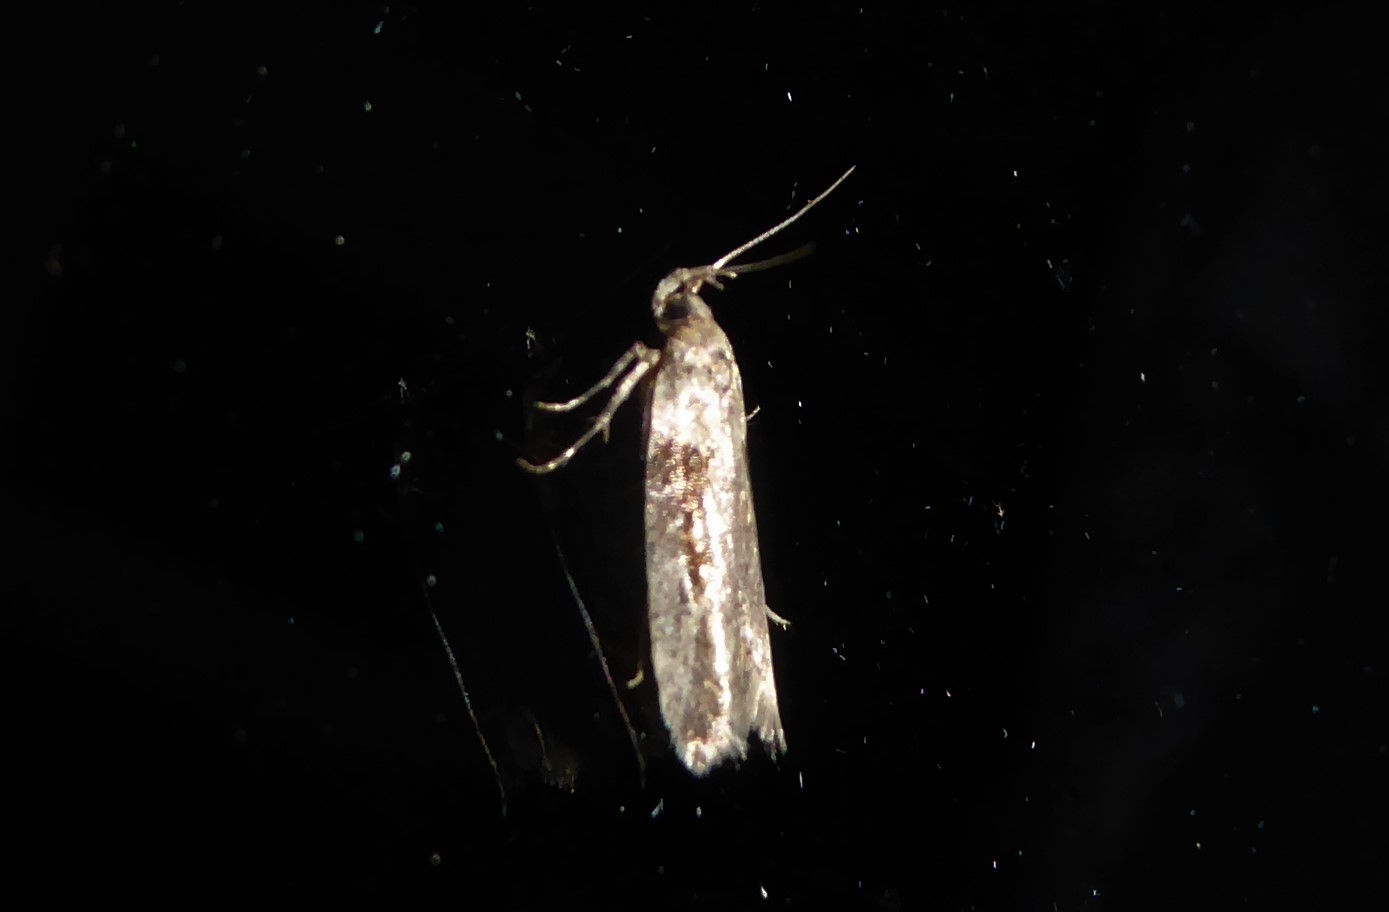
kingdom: Animalia
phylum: Arthropoda
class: Insecta
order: Lepidoptera
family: Gelechiidae
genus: Symmetrischema
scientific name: Symmetrischema tangolias
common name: Moth
